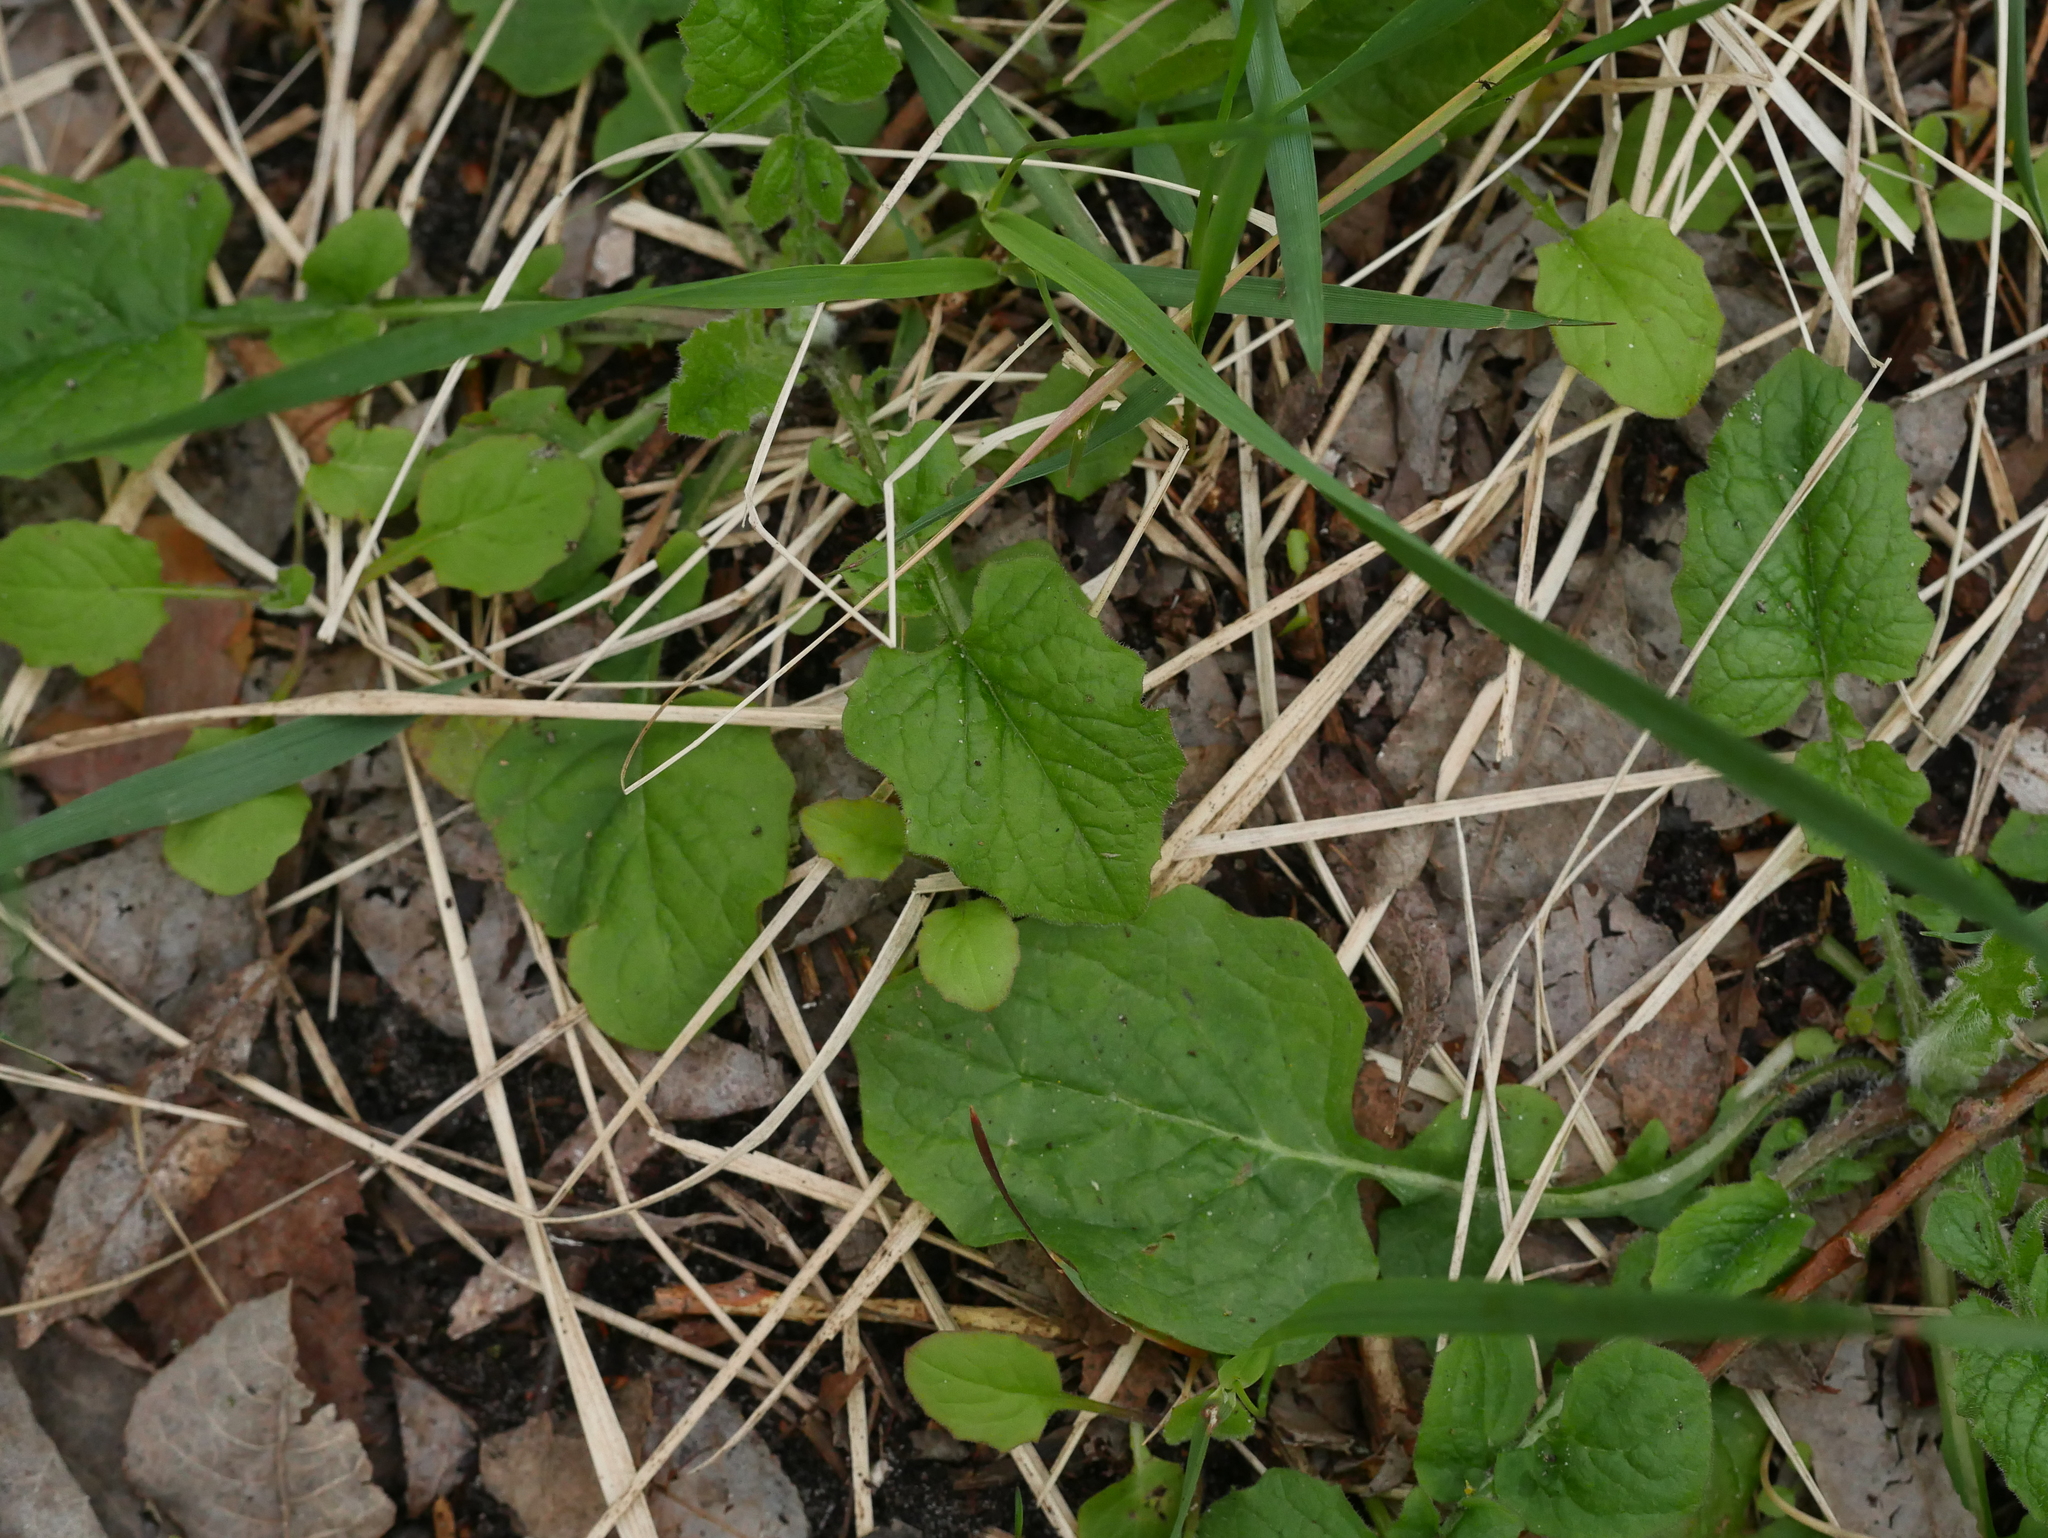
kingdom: Plantae
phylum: Tracheophyta
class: Magnoliopsida
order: Asterales
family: Asteraceae
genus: Lapsana
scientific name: Lapsana communis
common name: Nipplewort
